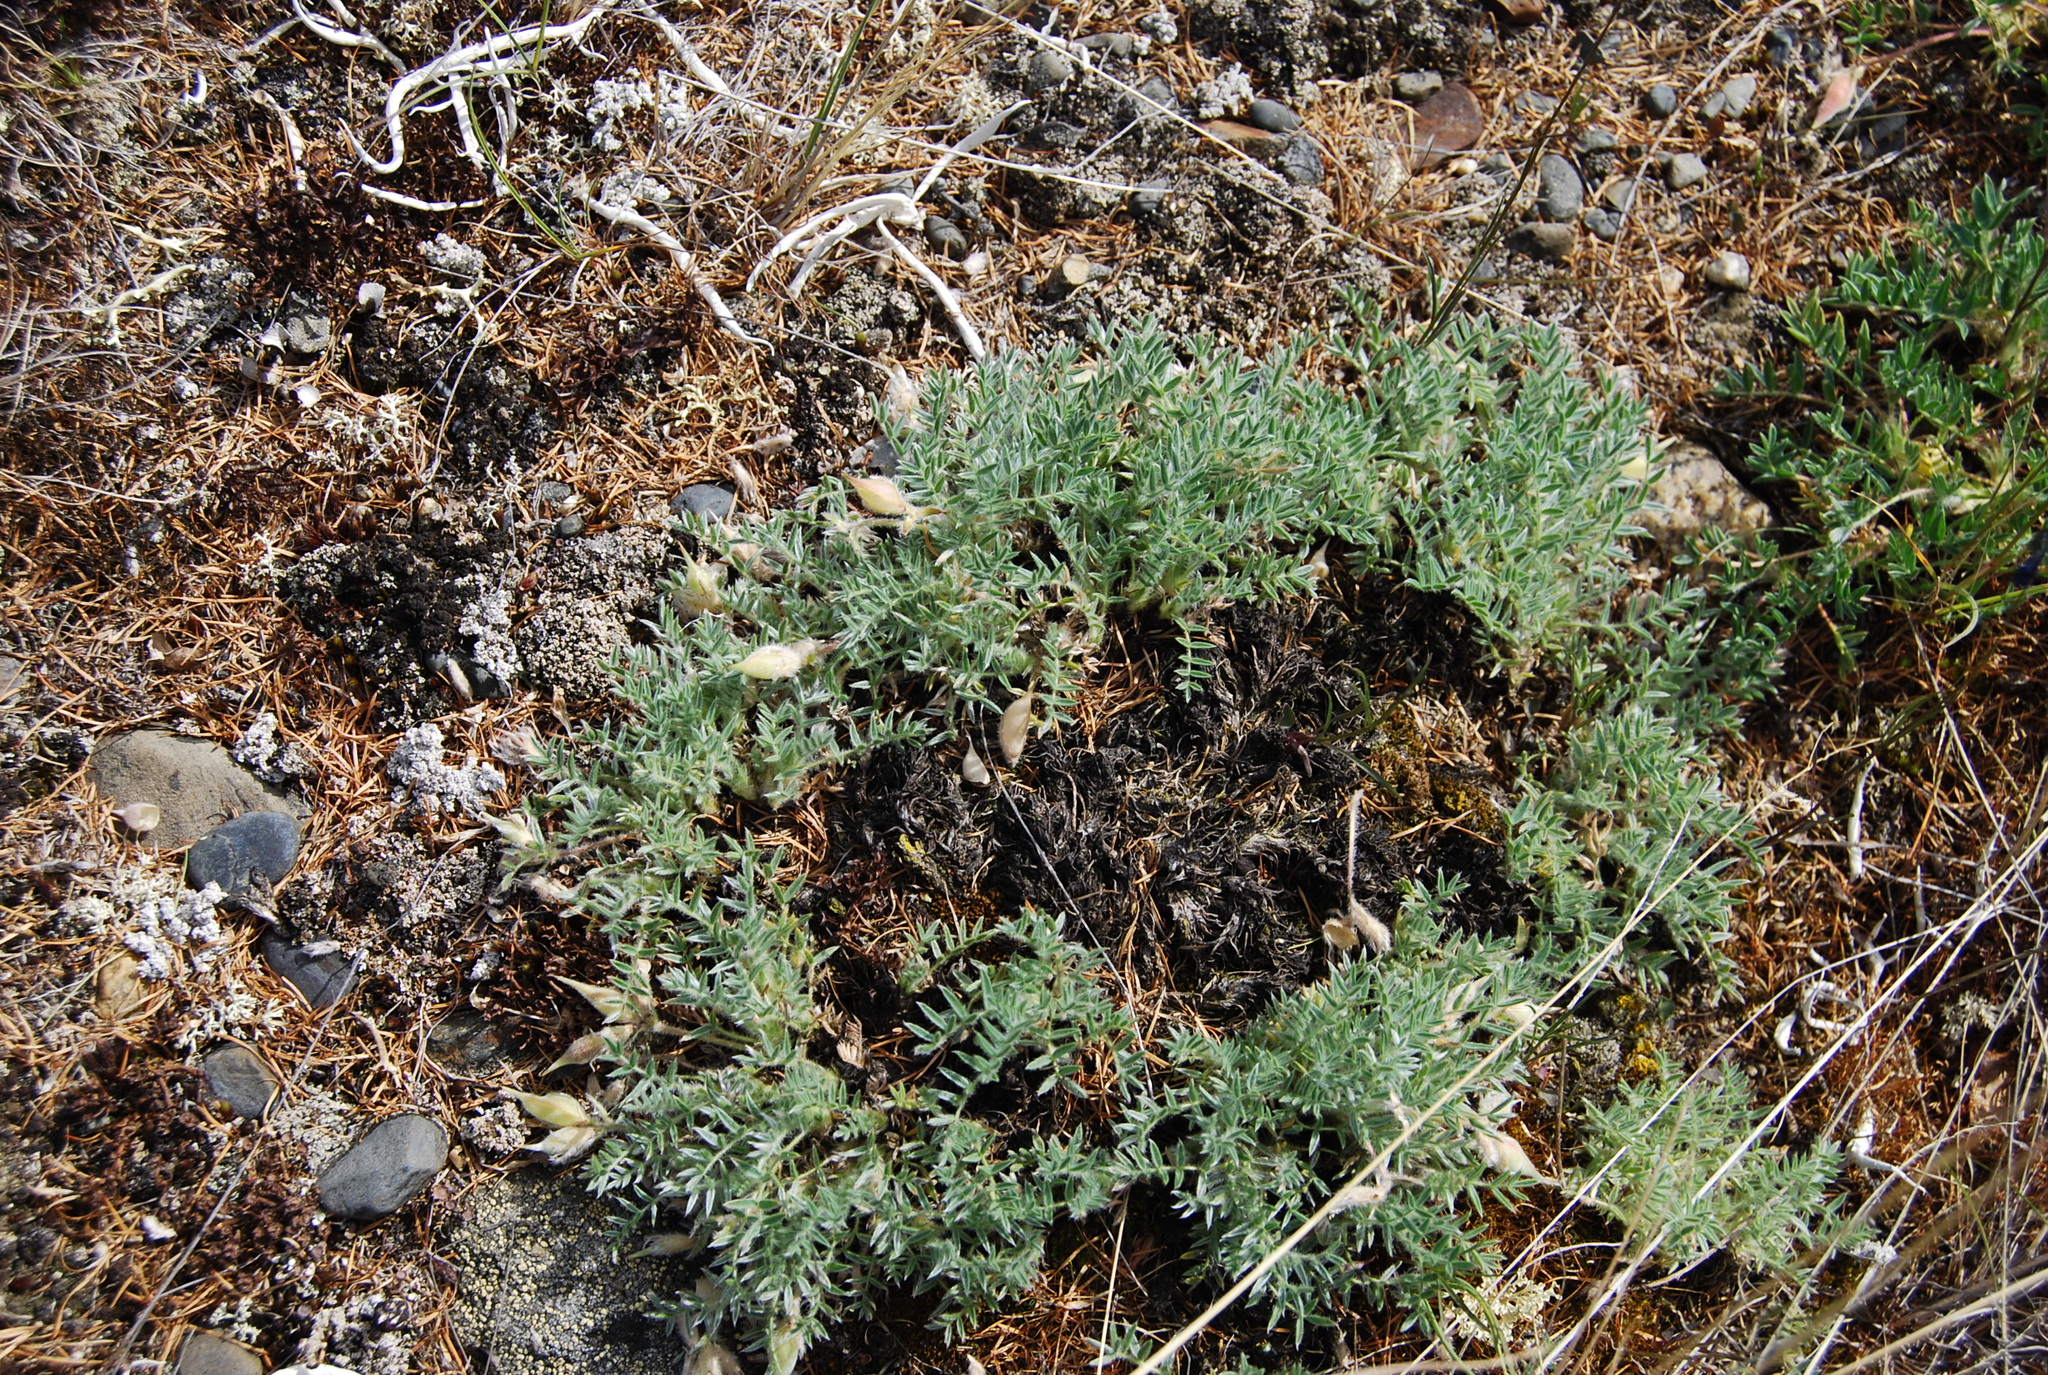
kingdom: Plantae
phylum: Tracheophyta
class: Magnoliopsida
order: Fabales
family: Fabaceae
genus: Oxytropis
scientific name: Oxytropis susumanica
